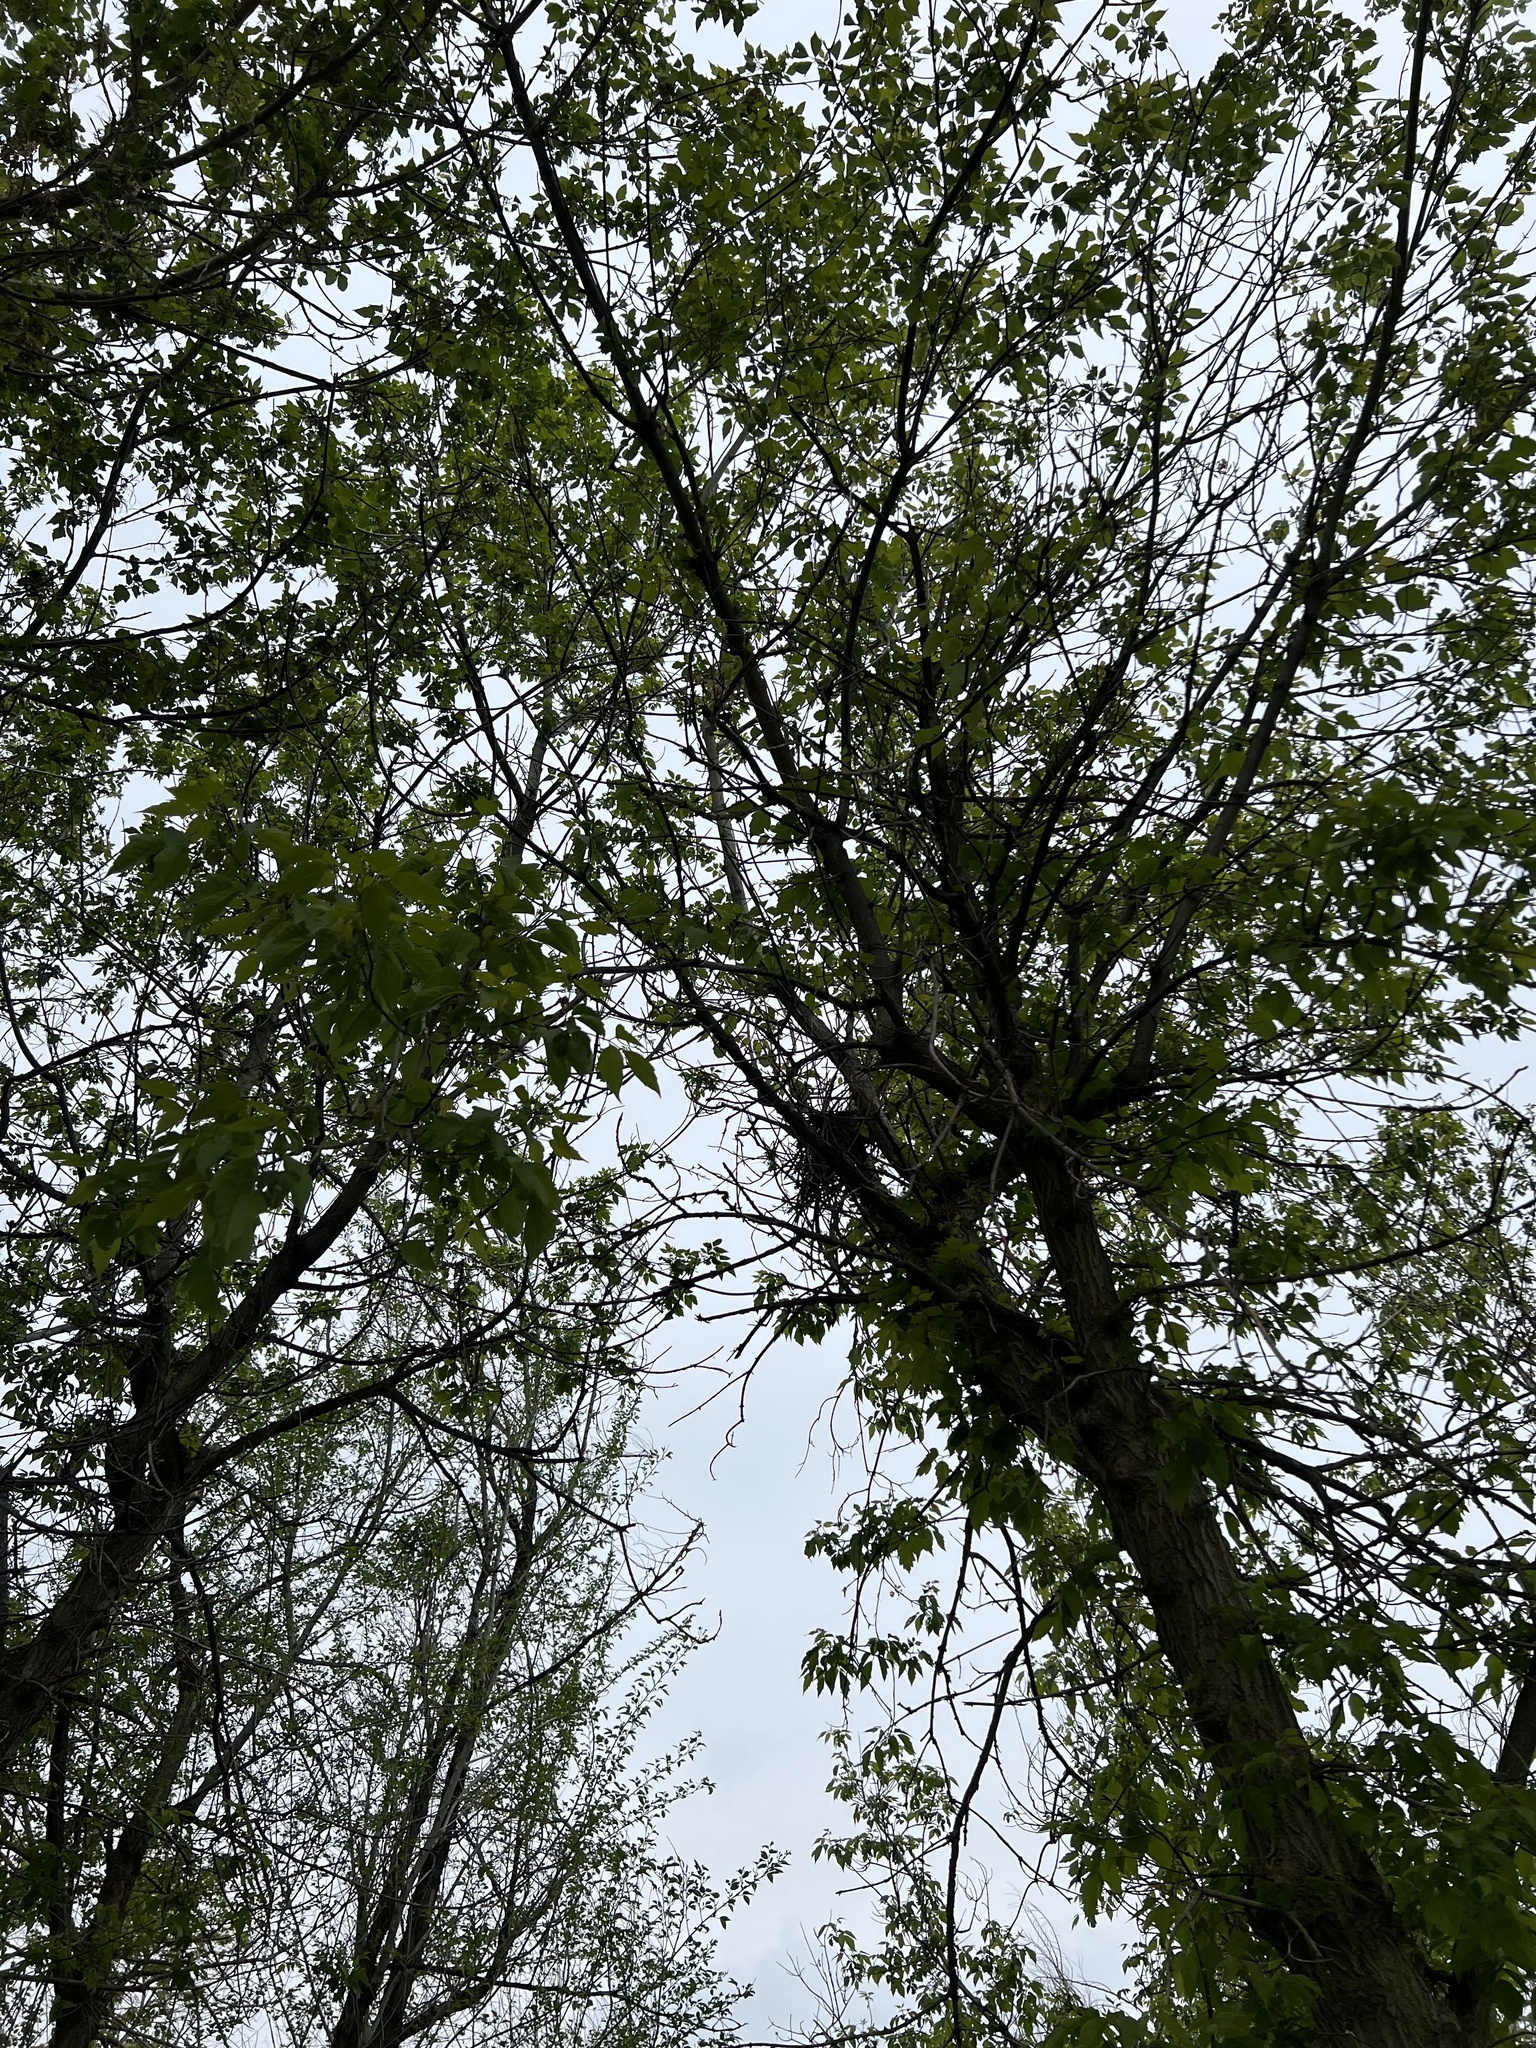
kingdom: Plantae
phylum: Tracheophyta
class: Magnoliopsida
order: Sapindales
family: Sapindaceae
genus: Acer
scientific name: Acer negundo
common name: Ashleaf maple
